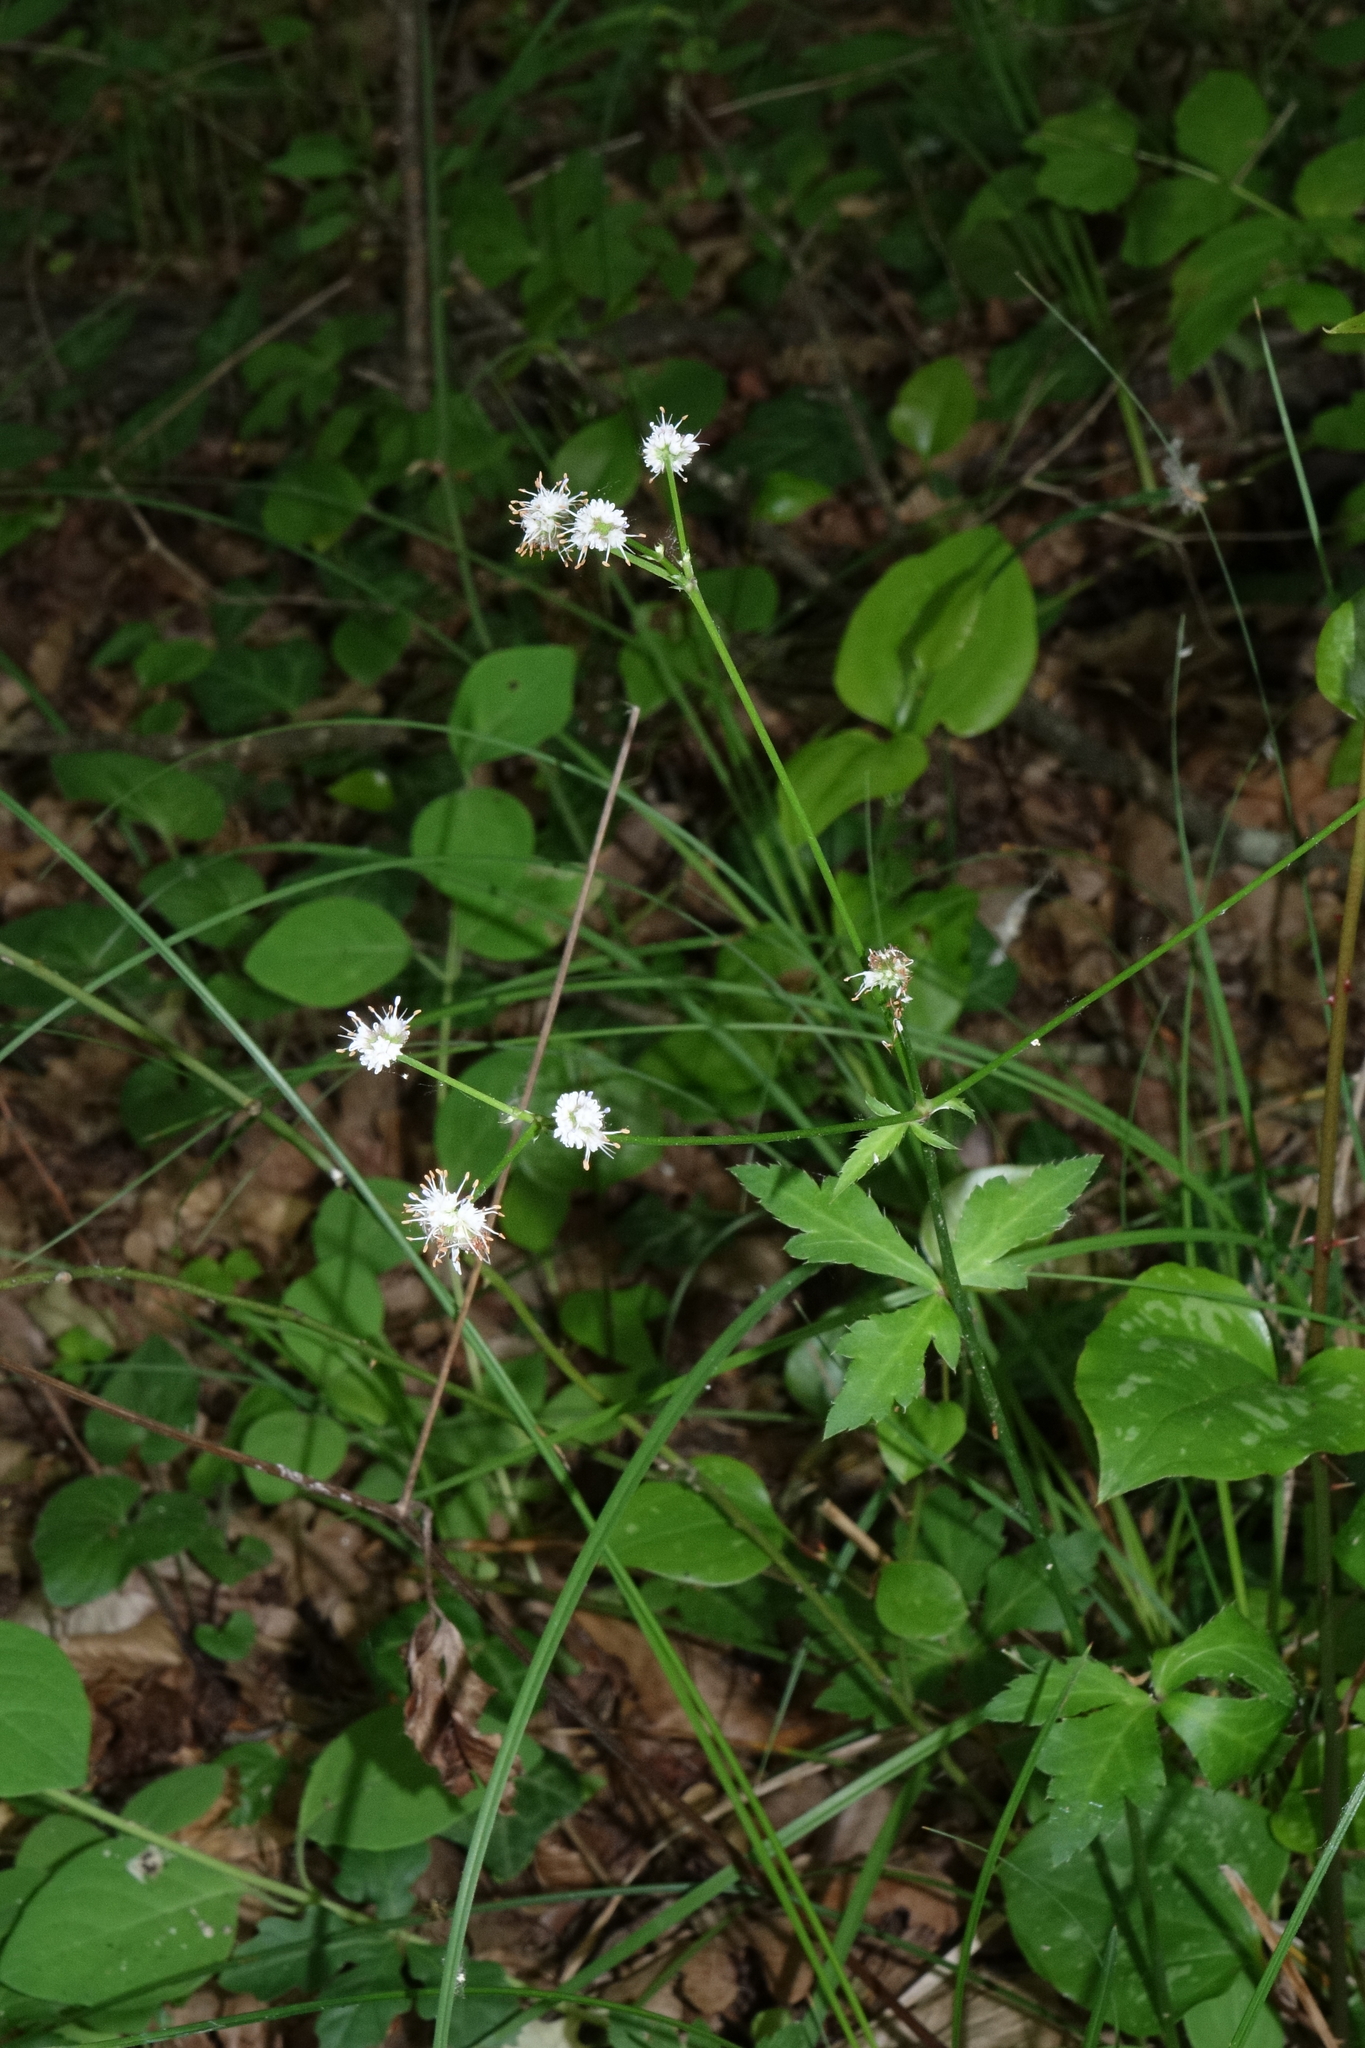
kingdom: Plantae
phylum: Tracheophyta
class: Magnoliopsida
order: Apiales
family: Apiaceae
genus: Sanicula
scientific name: Sanicula europaea
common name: Sanicle
